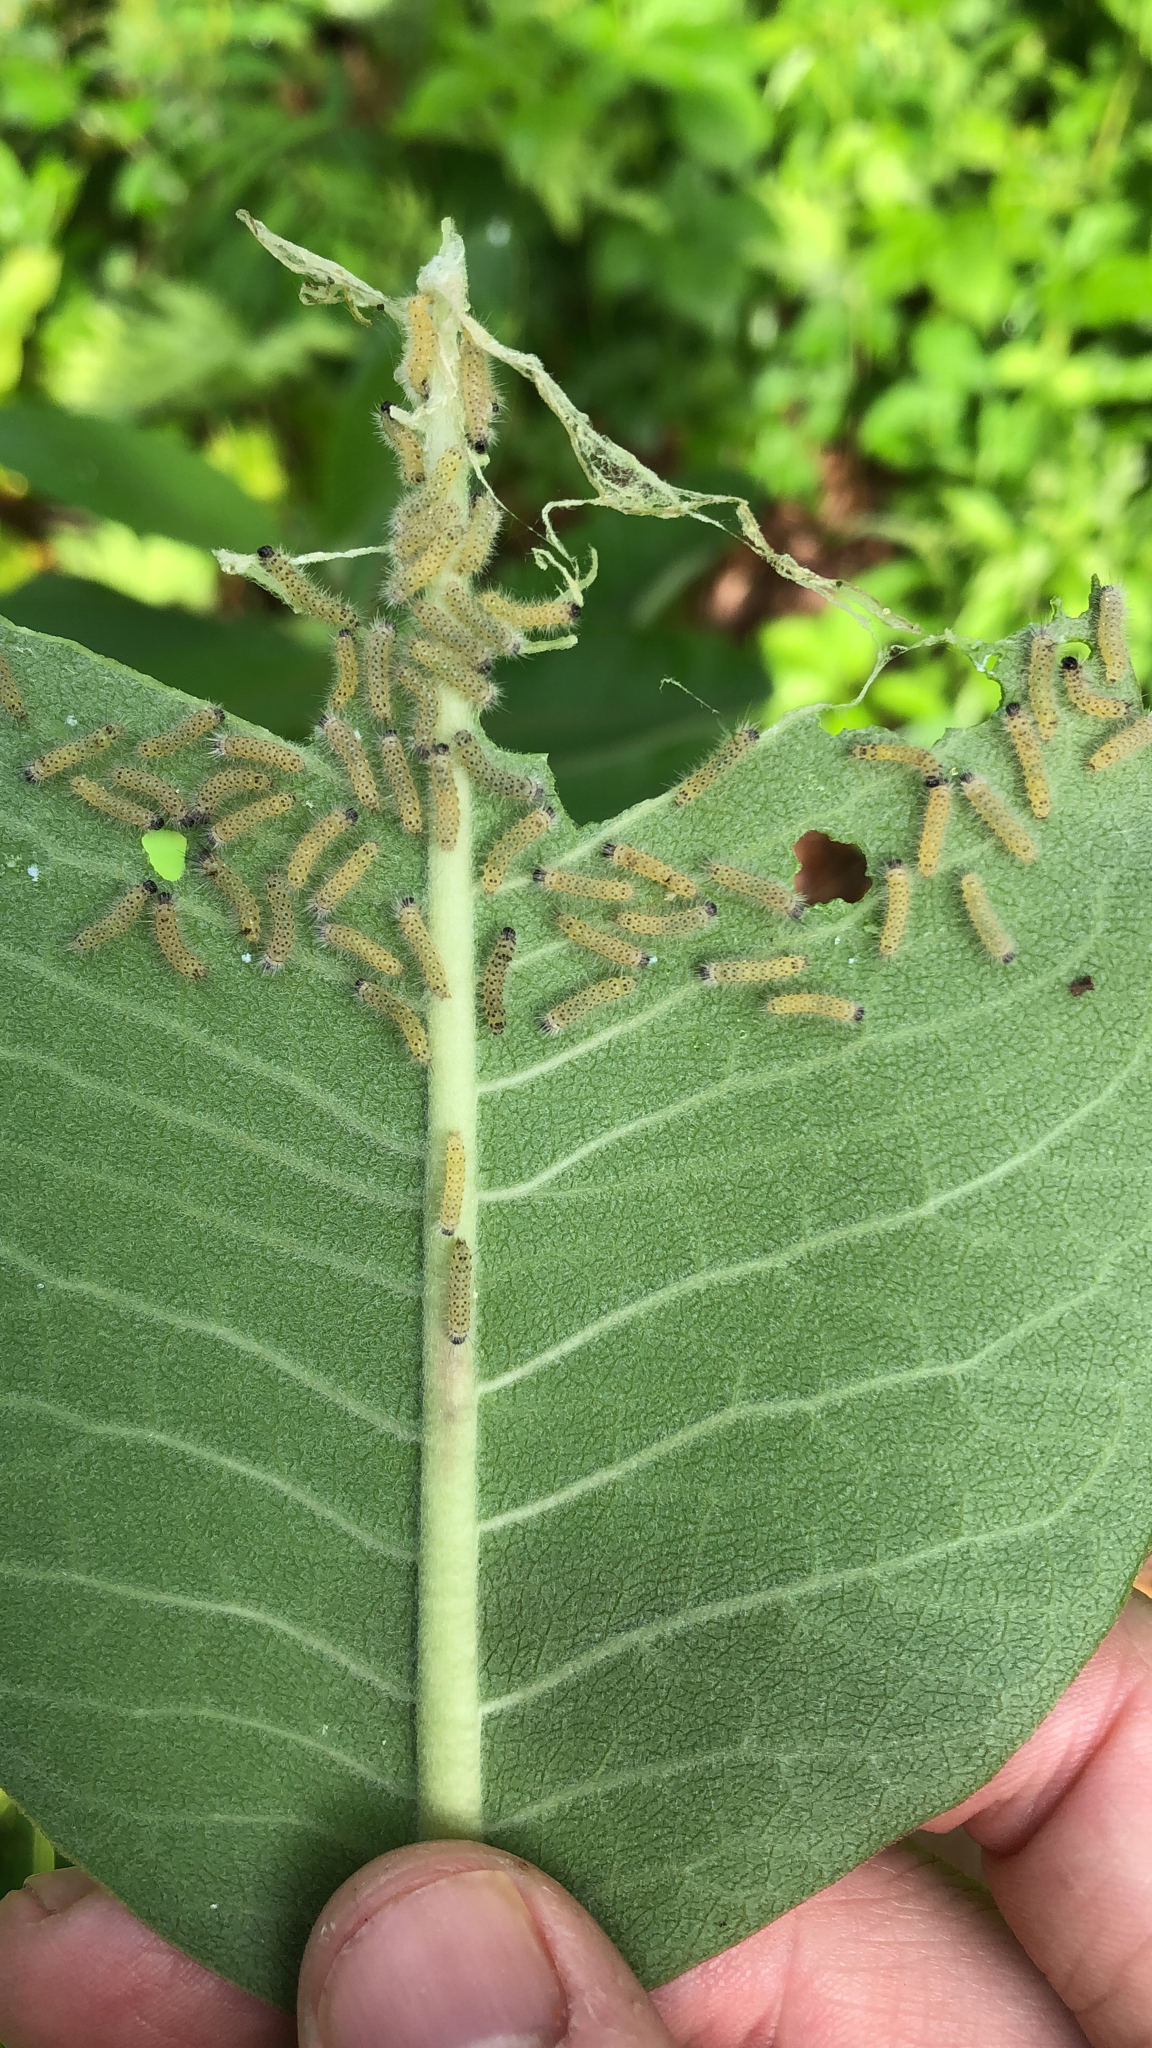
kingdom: Animalia
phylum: Arthropoda
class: Insecta
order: Lepidoptera
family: Erebidae
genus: Euchaetes
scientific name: Euchaetes egle
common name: Milkweed tussock moth
